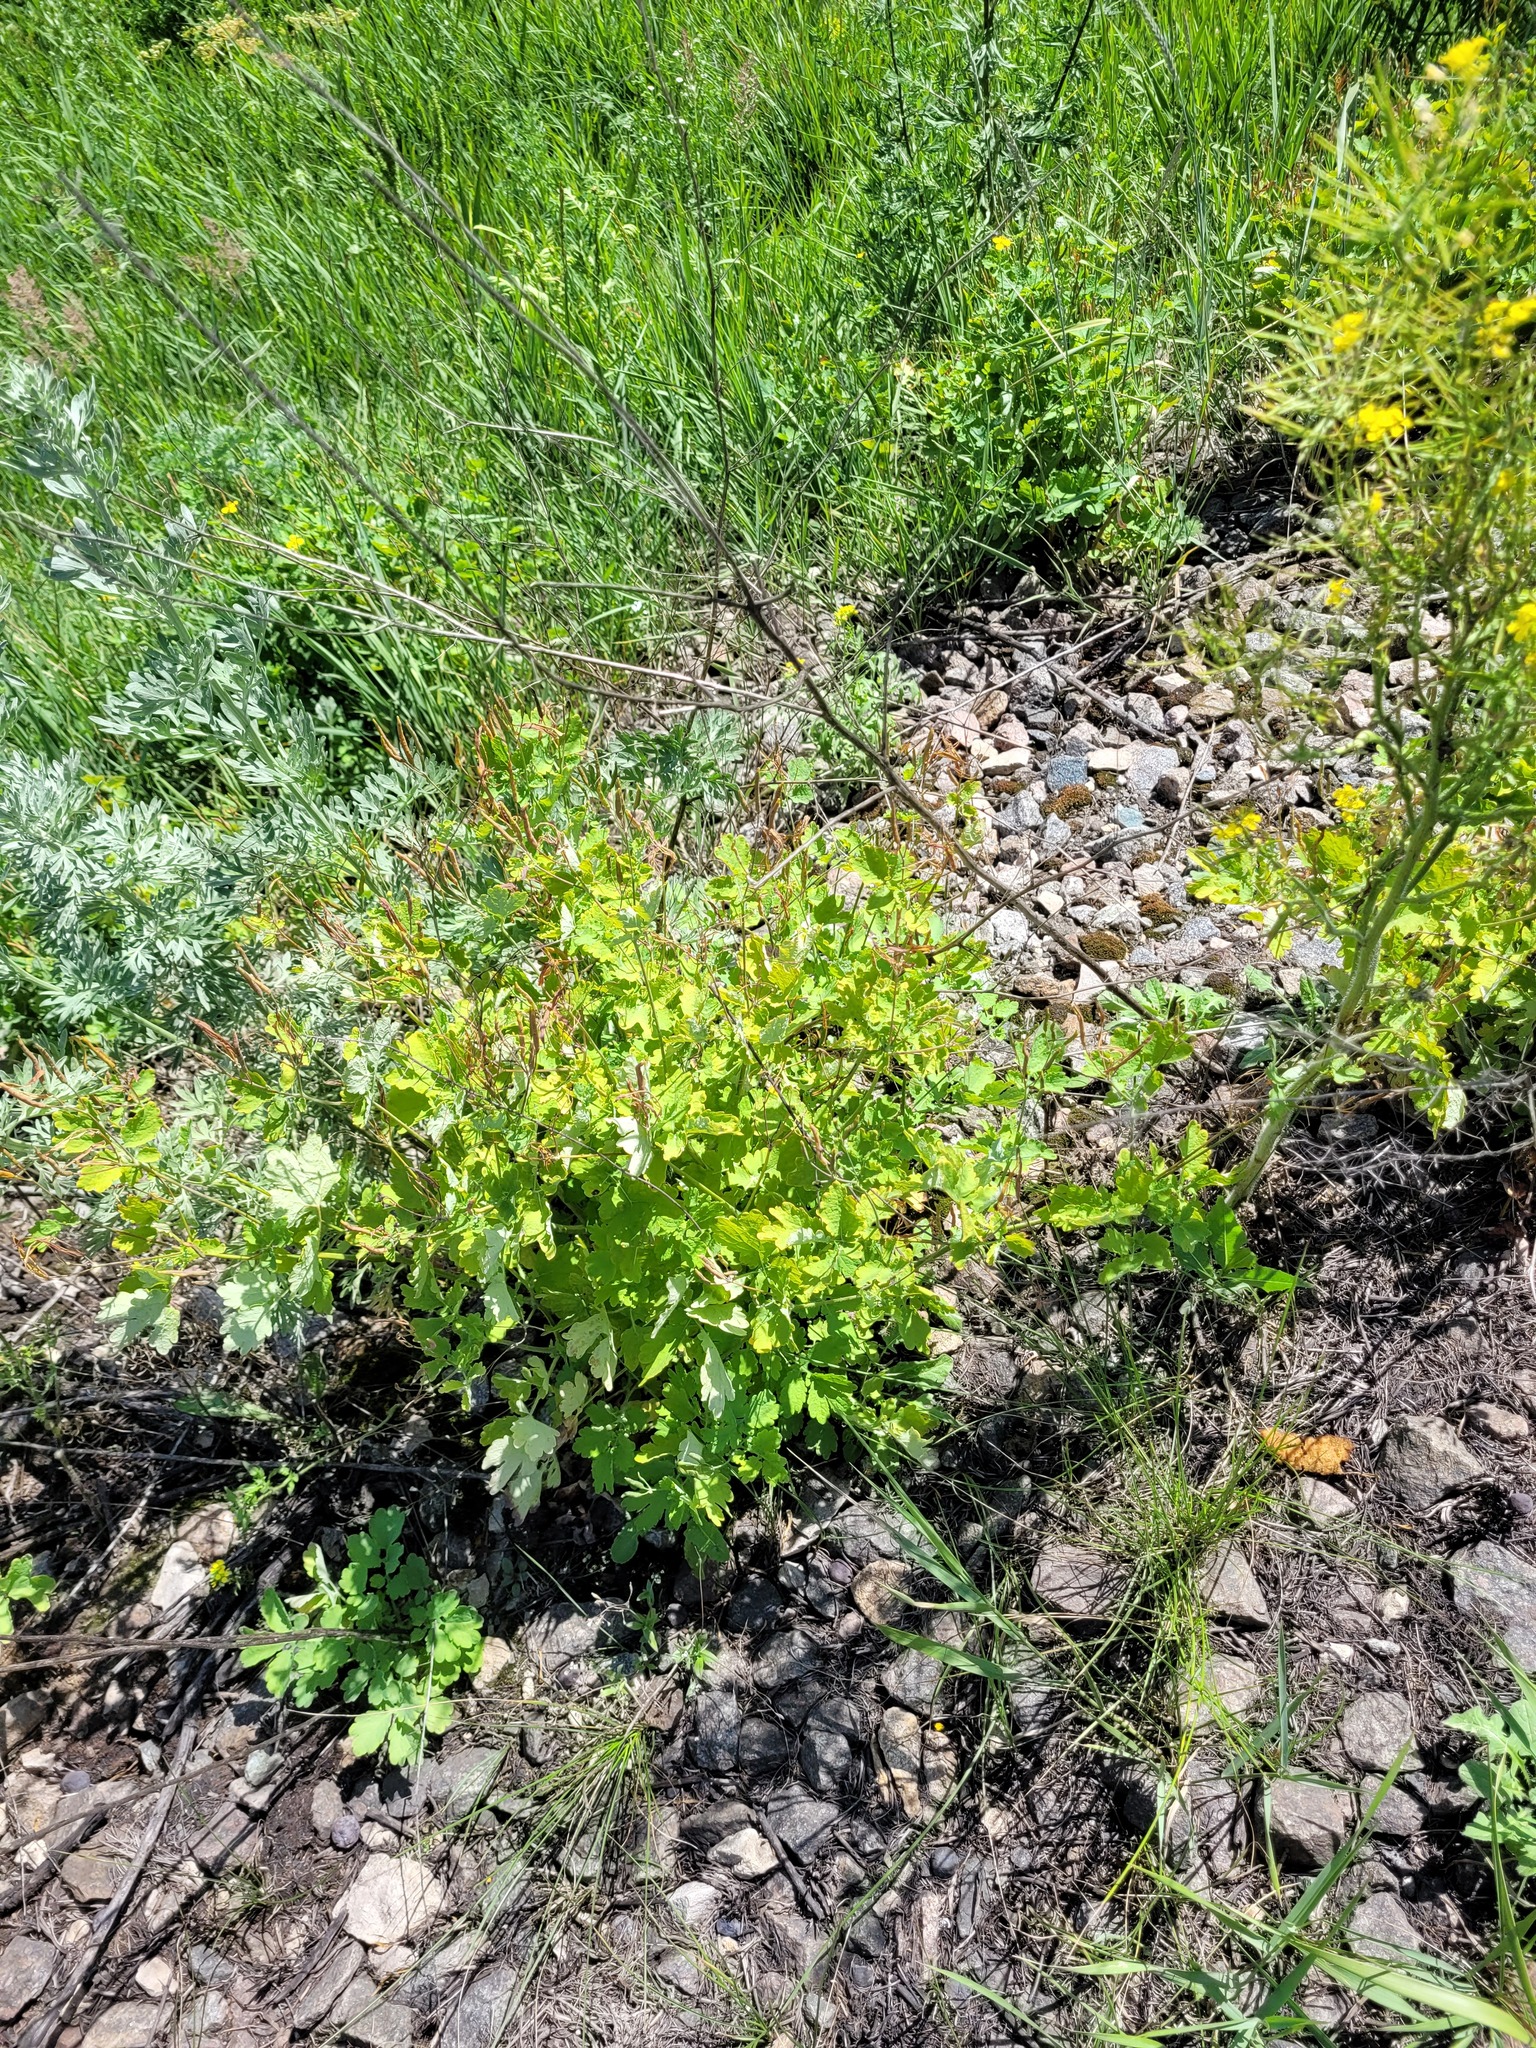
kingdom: Plantae
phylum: Tracheophyta
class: Magnoliopsida
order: Ranunculales
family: Papaveraceae
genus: Chelidonium
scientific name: Chelidonium majus
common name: Greater celandine
